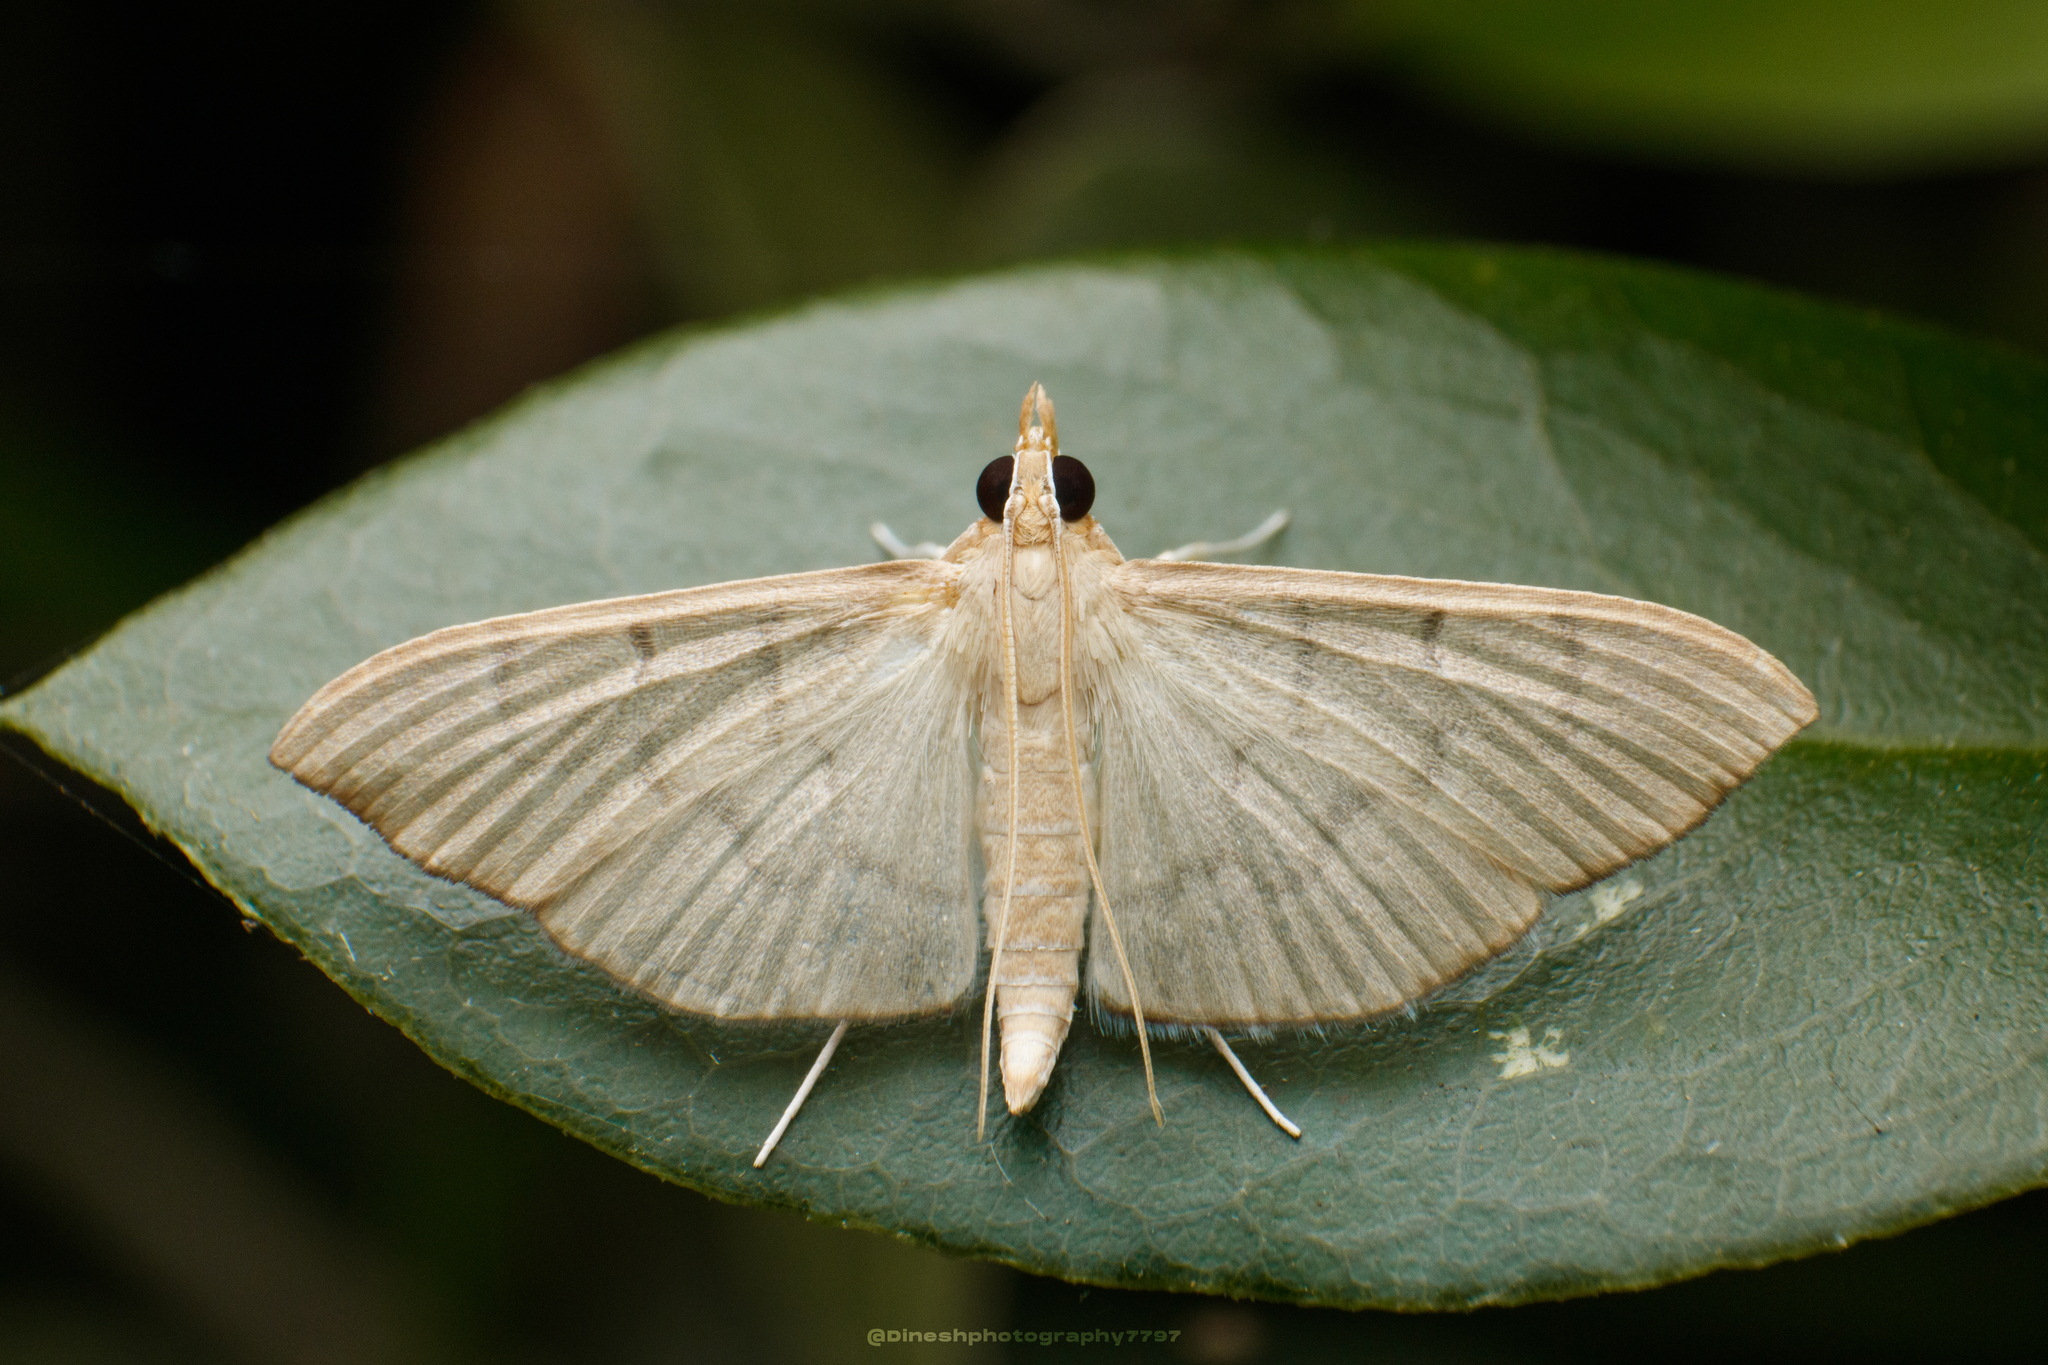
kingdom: Animalia
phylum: Arthropoda
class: Insecta
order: Lepidoptera
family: Crambidae
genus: Lamprophaia
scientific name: Lamprophaia ablactalis
